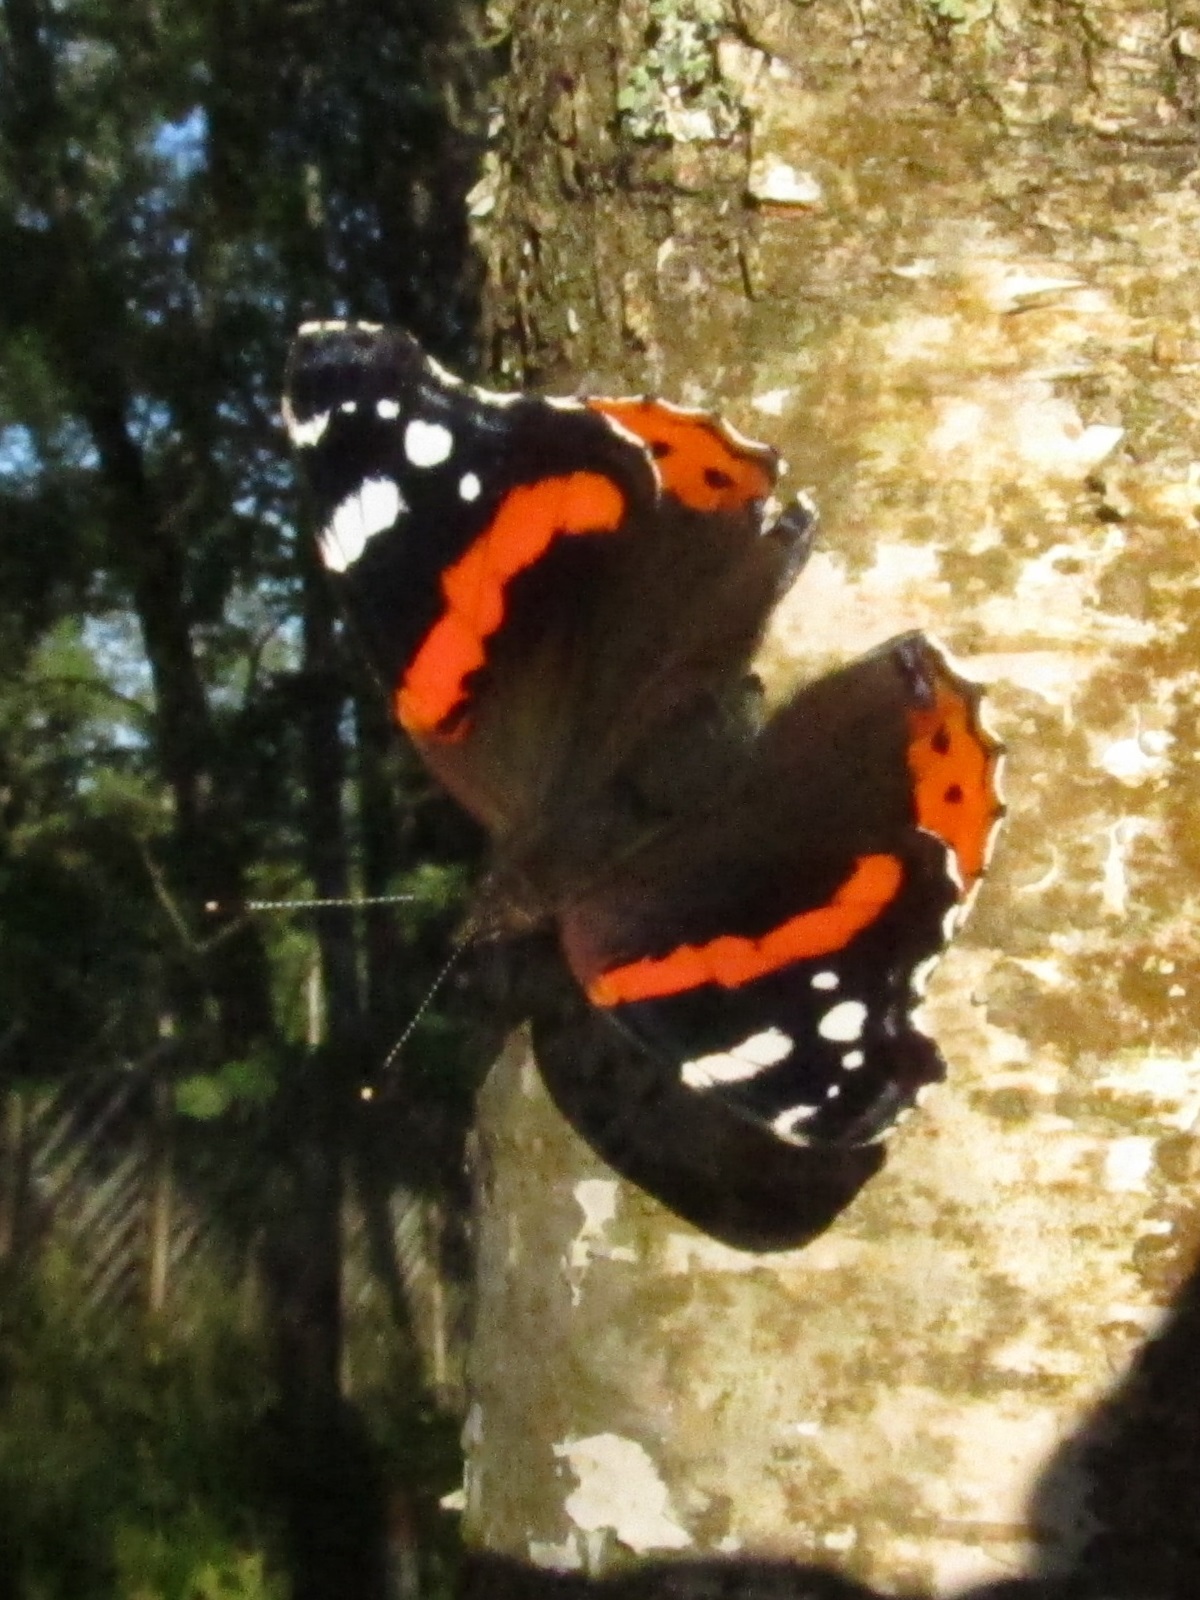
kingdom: Animalia
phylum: Arthropoda
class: Insecta
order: Lepidoptera
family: Nymphalidae
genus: Vanessa
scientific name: Vanessa atalanta
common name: Red admiral
